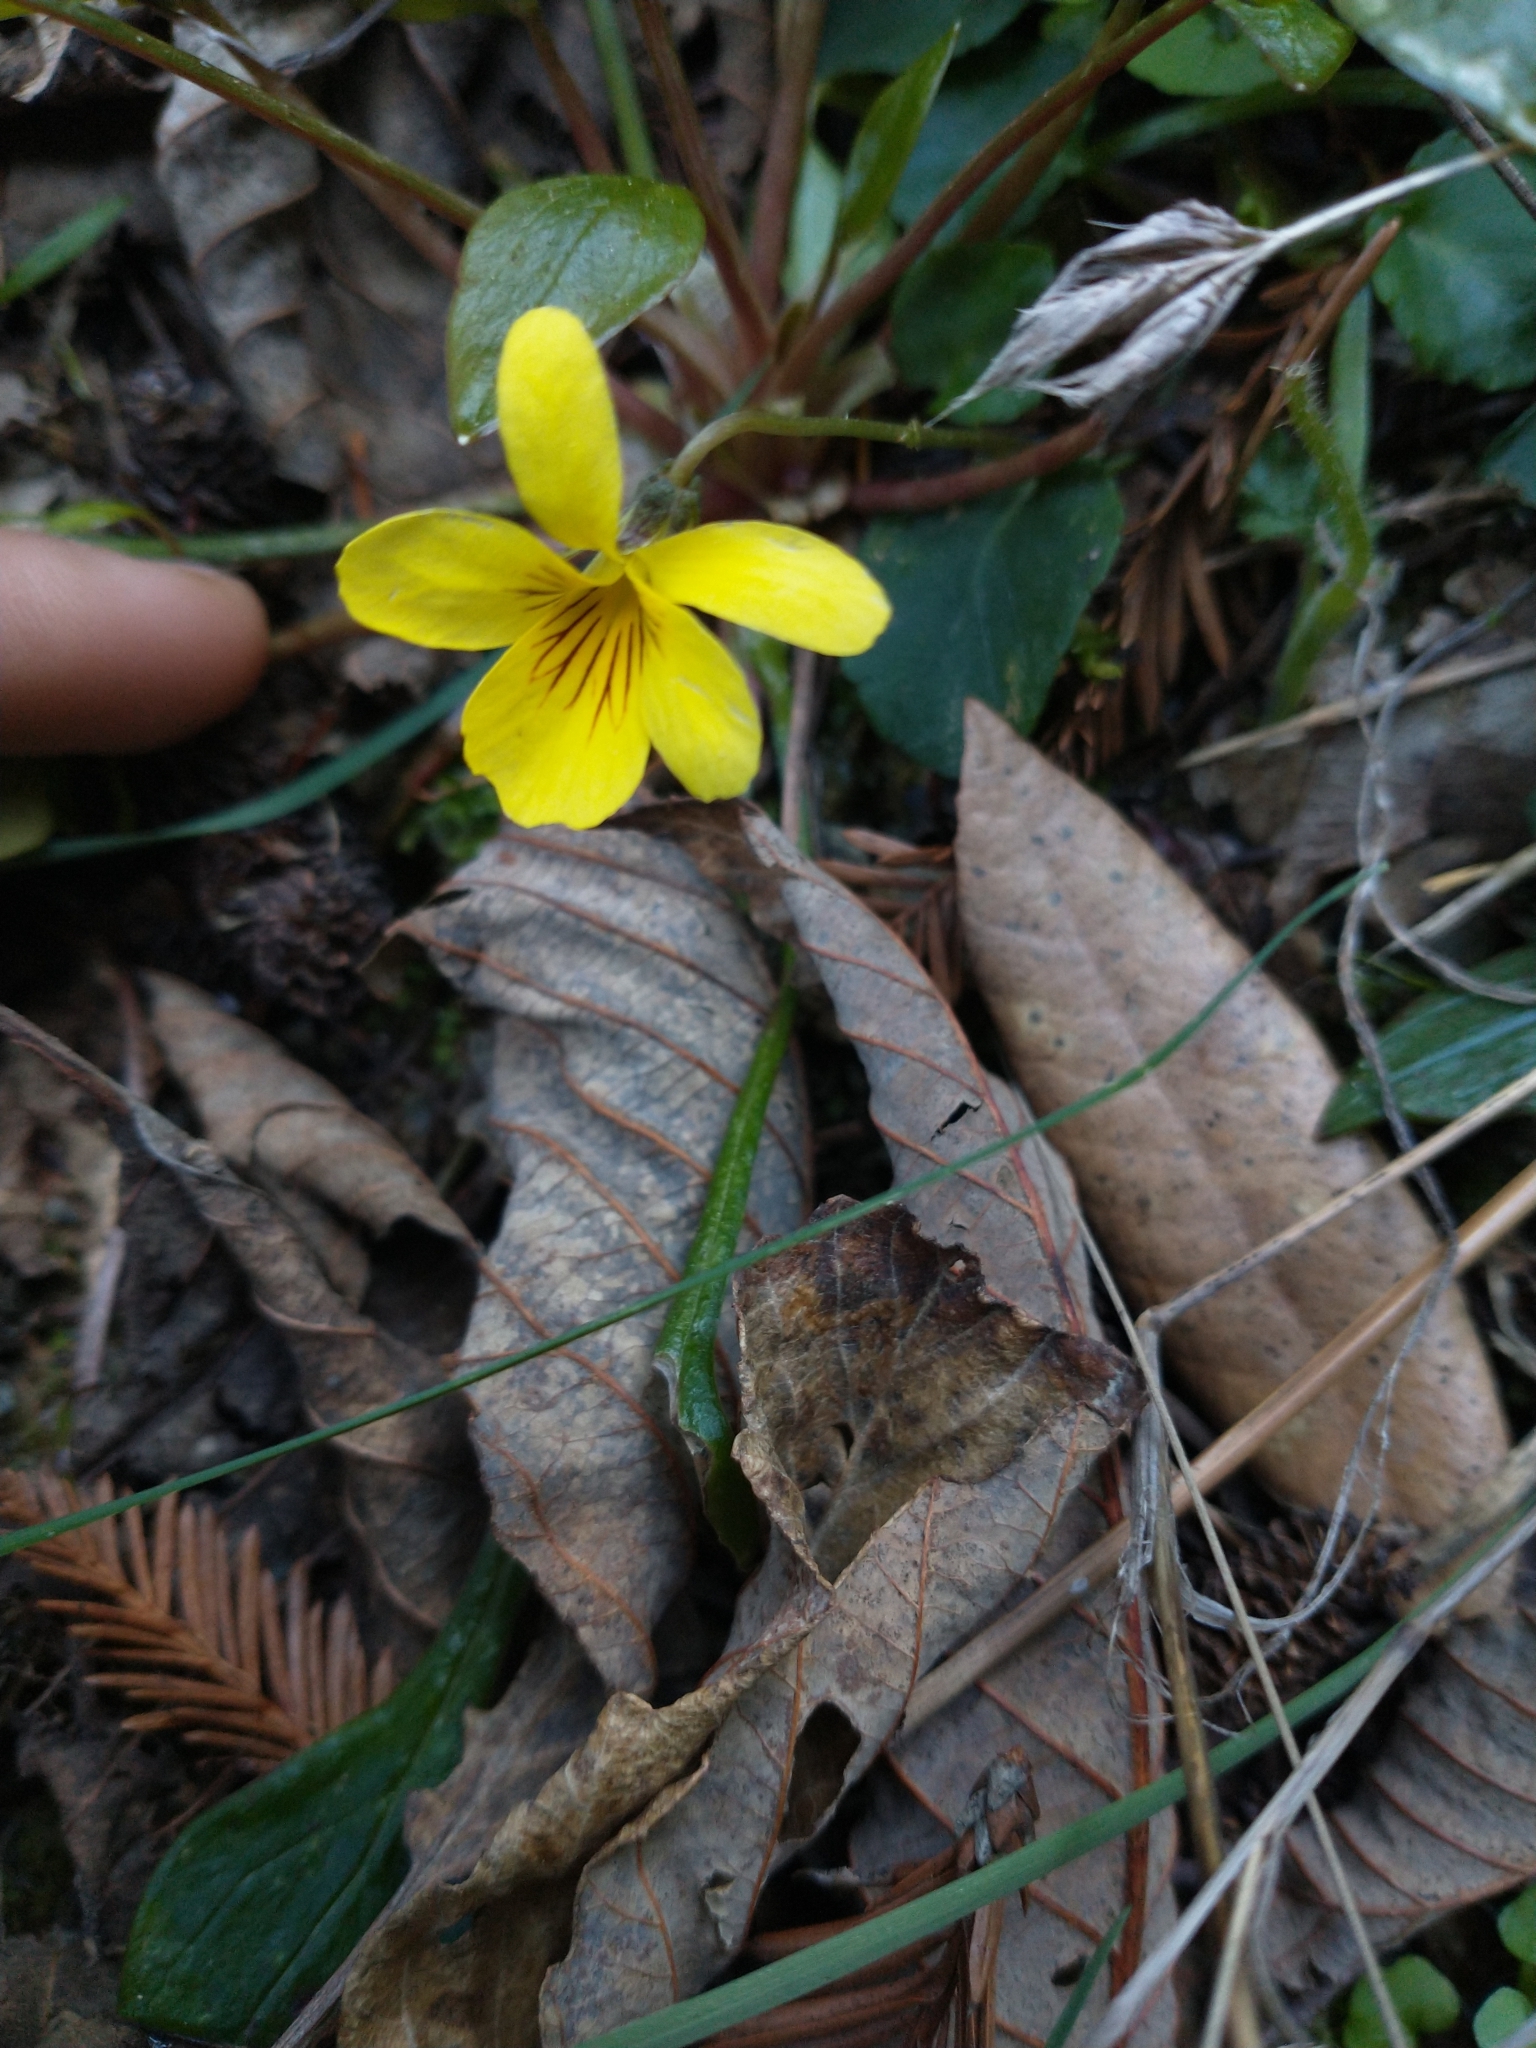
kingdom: Plantae
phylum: Tracheophyta
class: Magnoliopsida
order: Malpighiales
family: Violaceae
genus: Viola
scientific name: Viola sempervirens
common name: Evergreen violet
